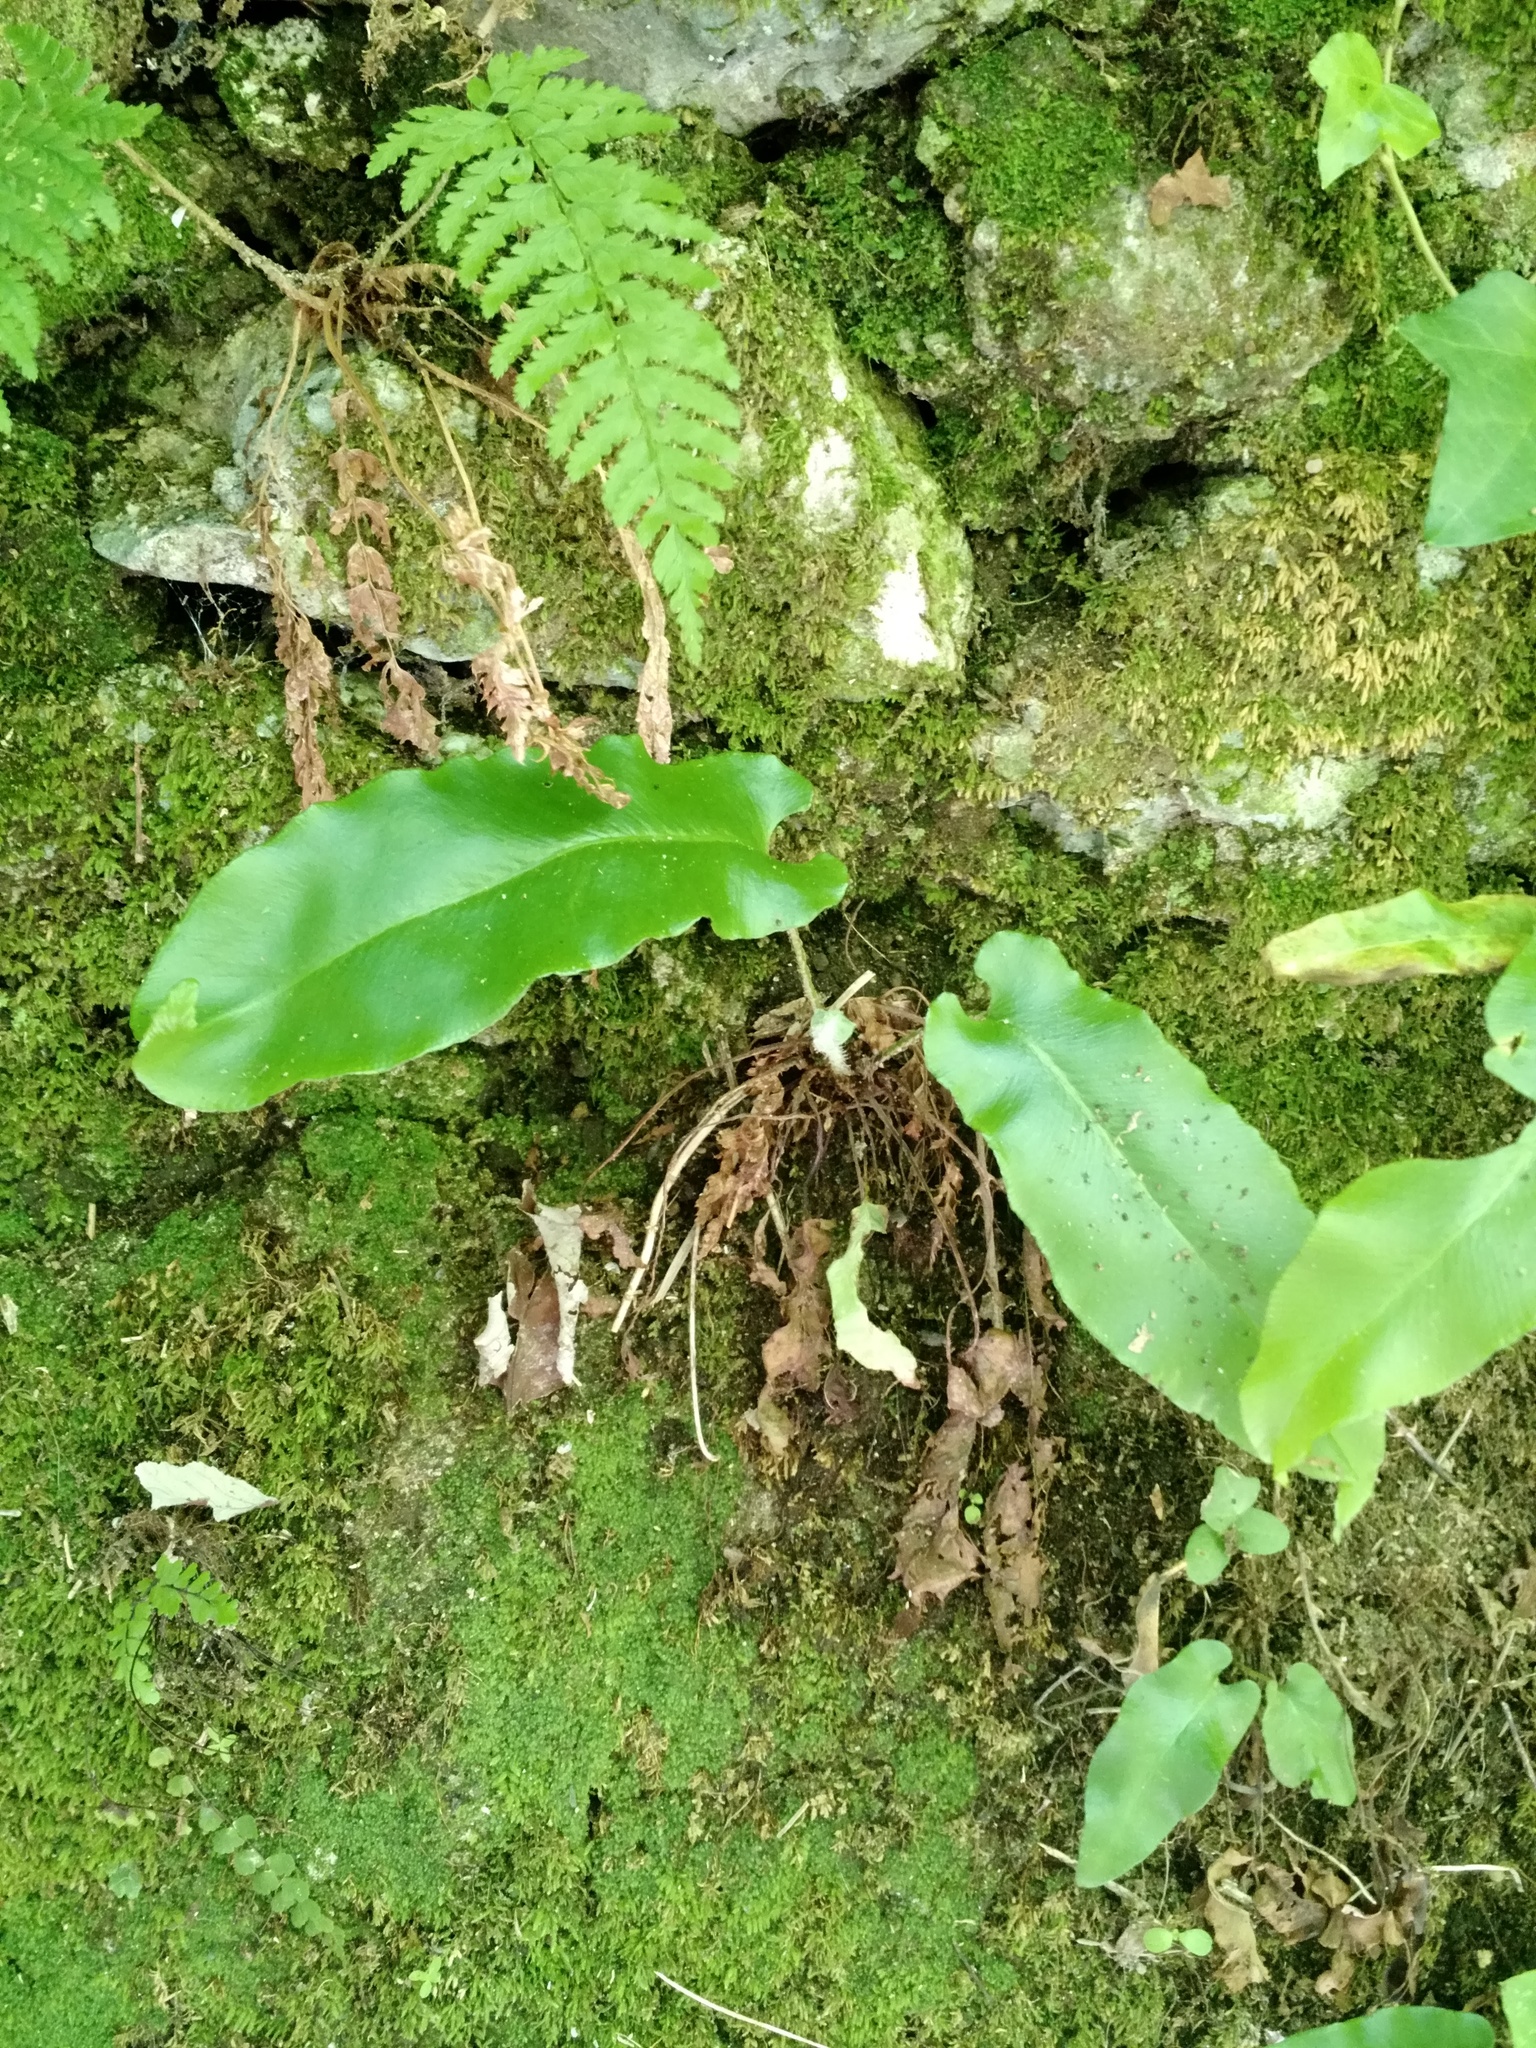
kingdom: Plantae
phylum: Tracheophyta
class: Polypodiopsida
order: Polypodiales
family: Aspleniaceae
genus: Asplenium
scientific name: Asplenium scolopendrium
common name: Hart's-tongue fern
